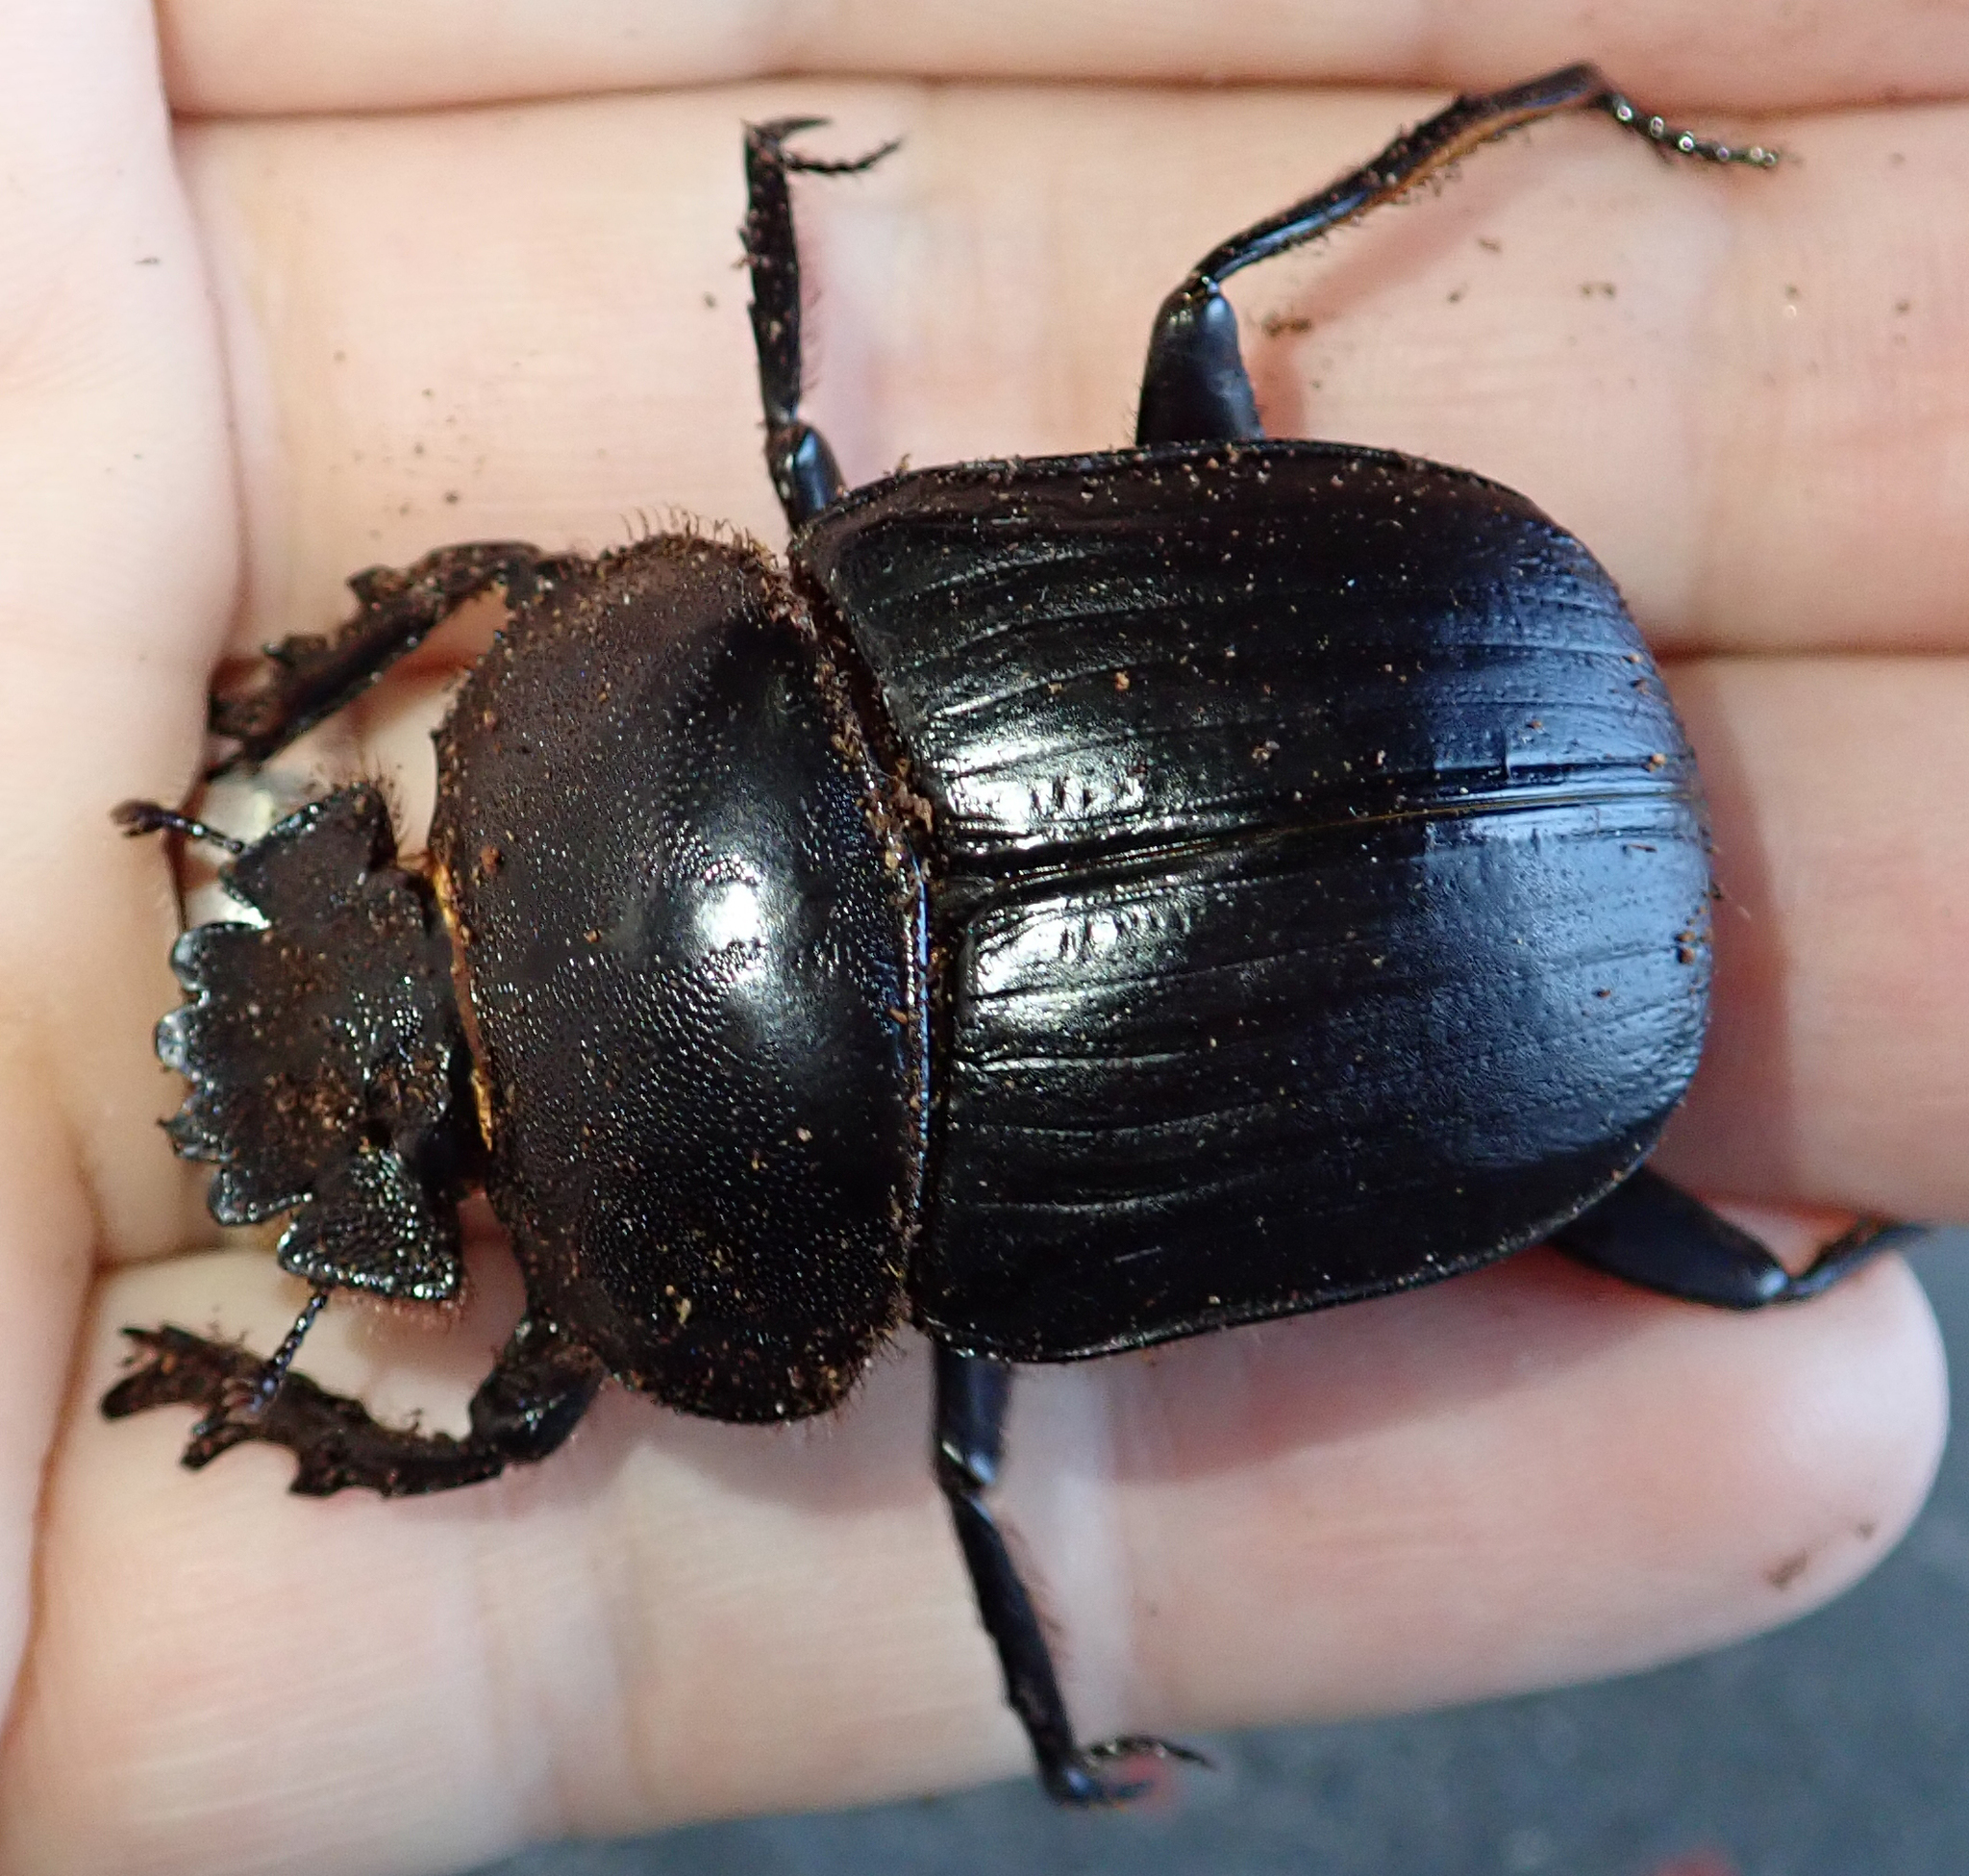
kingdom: Animalia
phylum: Arthropoda
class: Insecta
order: Coleoptera
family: Scarabaeidae
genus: Kheper
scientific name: Kheper prodigiosus
